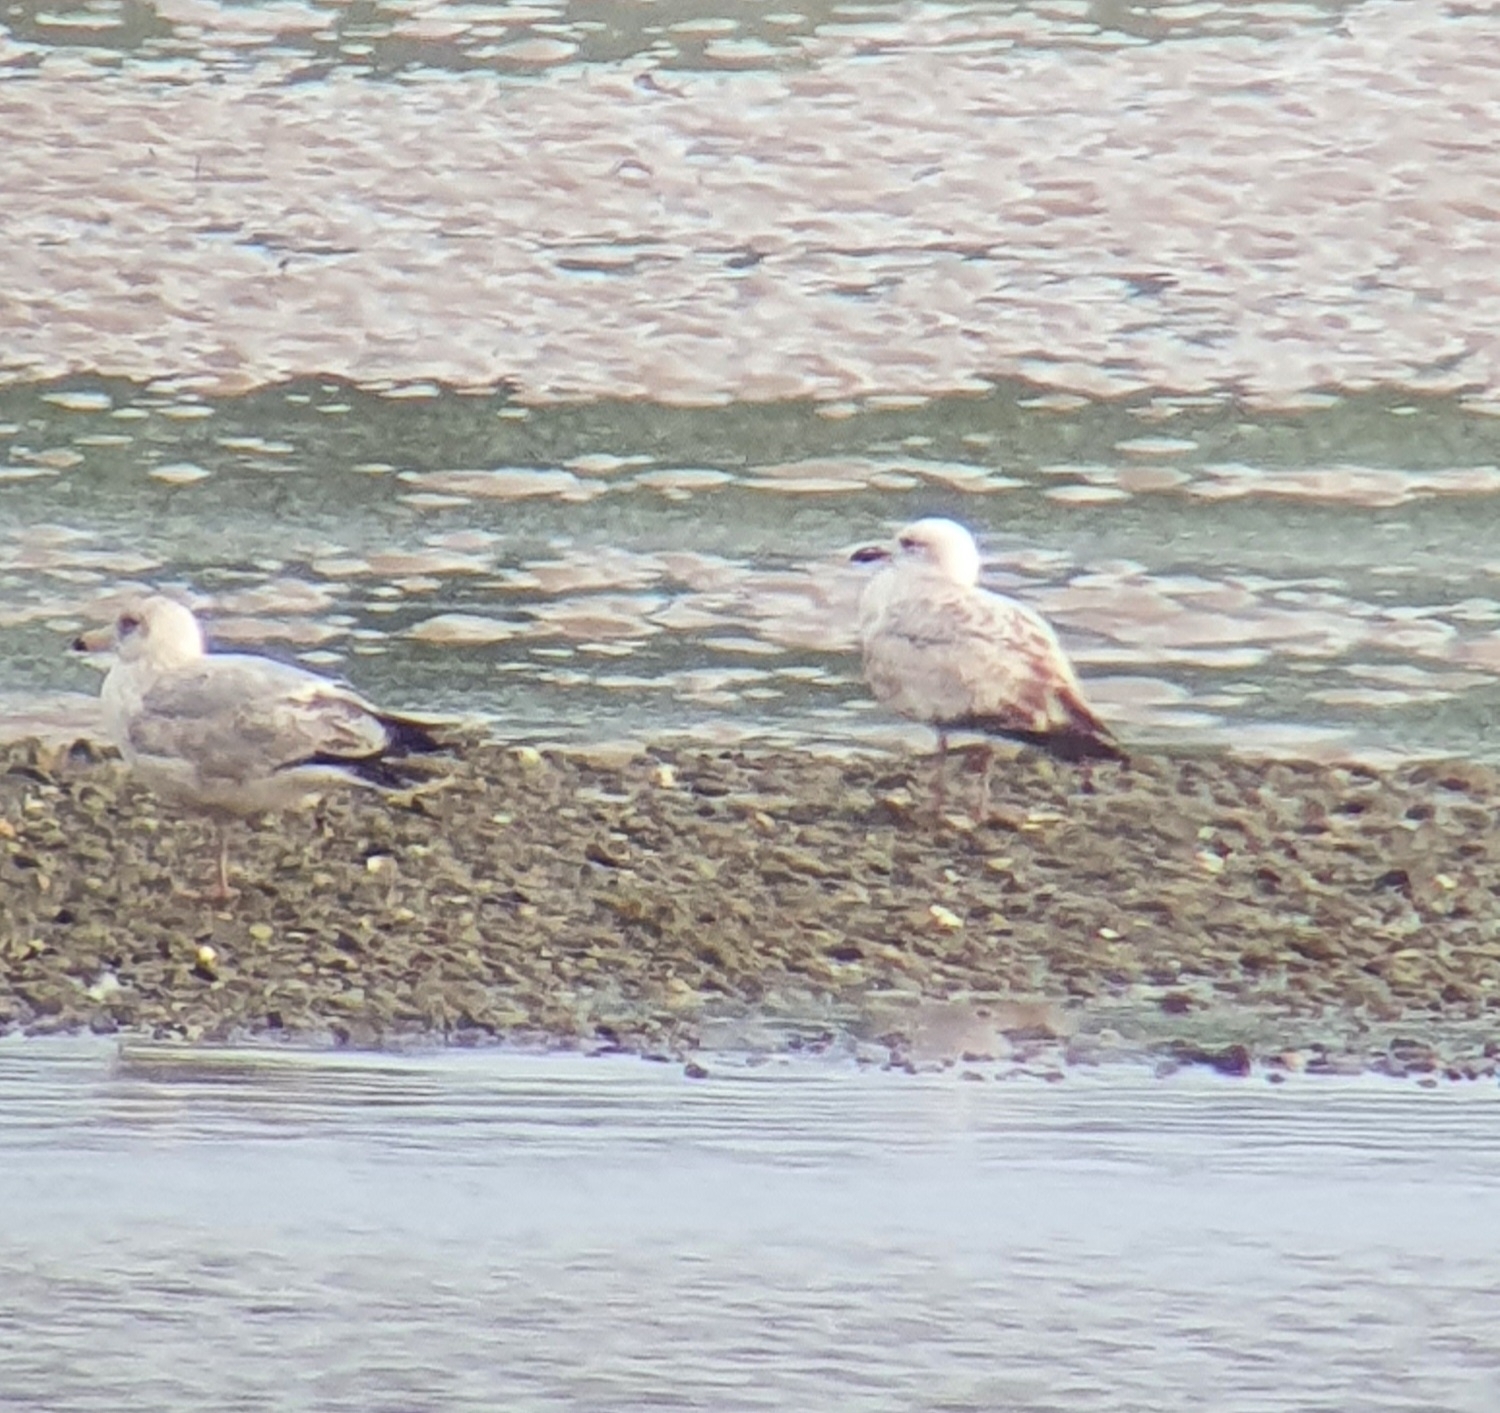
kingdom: Animalia
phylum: Chordata
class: Aves
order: Charadriiformes
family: Laridae
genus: Larus
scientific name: Larus cachinnans
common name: Caspian gull
